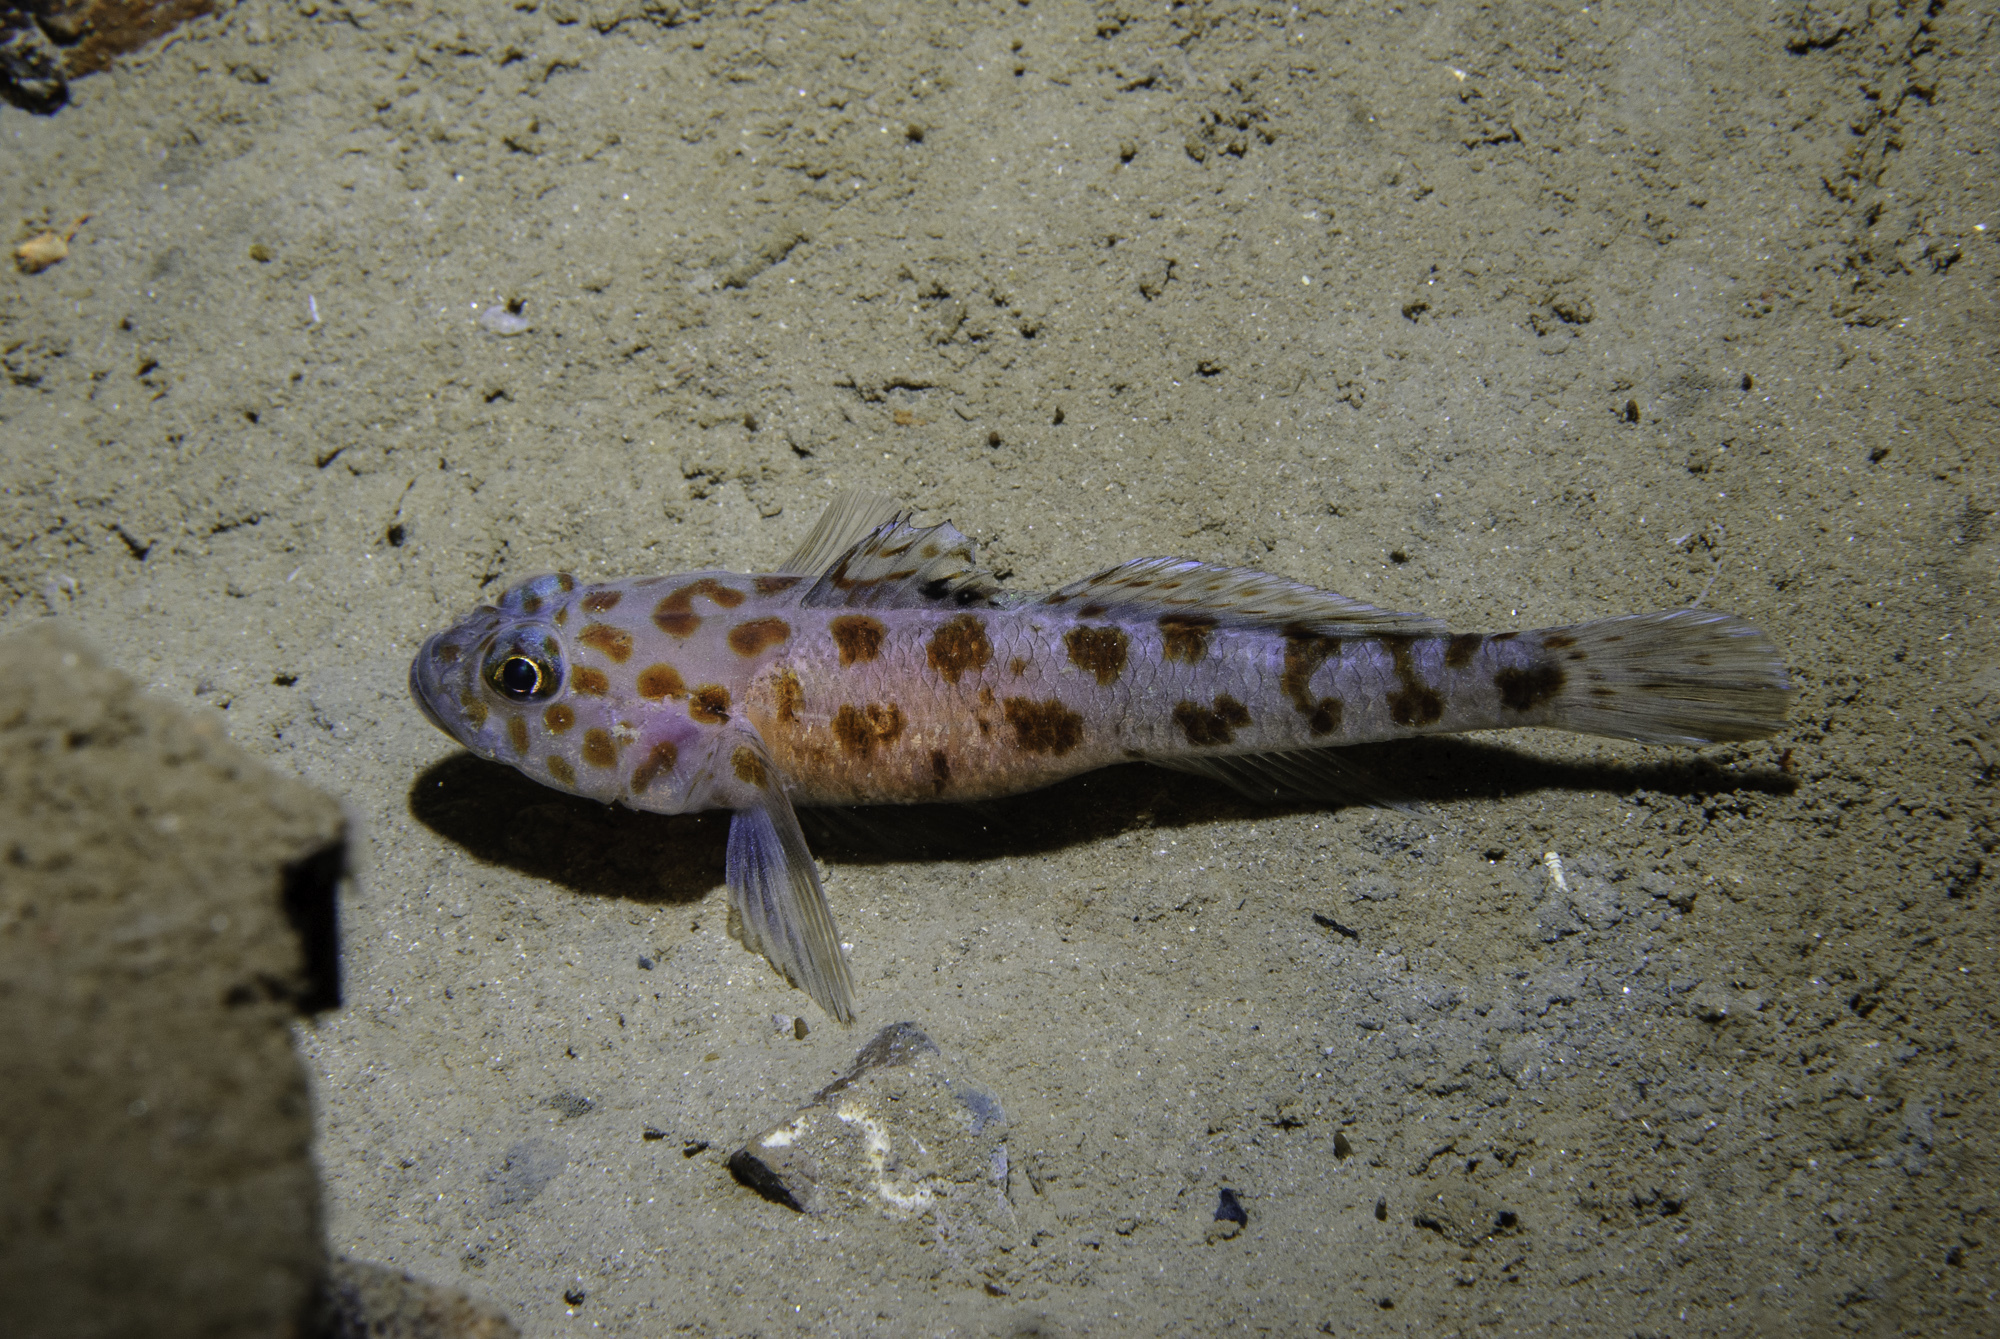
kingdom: Animalia
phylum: Chordata
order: Perciformes
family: Gobiidae
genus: Thorogobius
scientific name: Thorogobius ephippiatus
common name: Leopard-spotted goby
